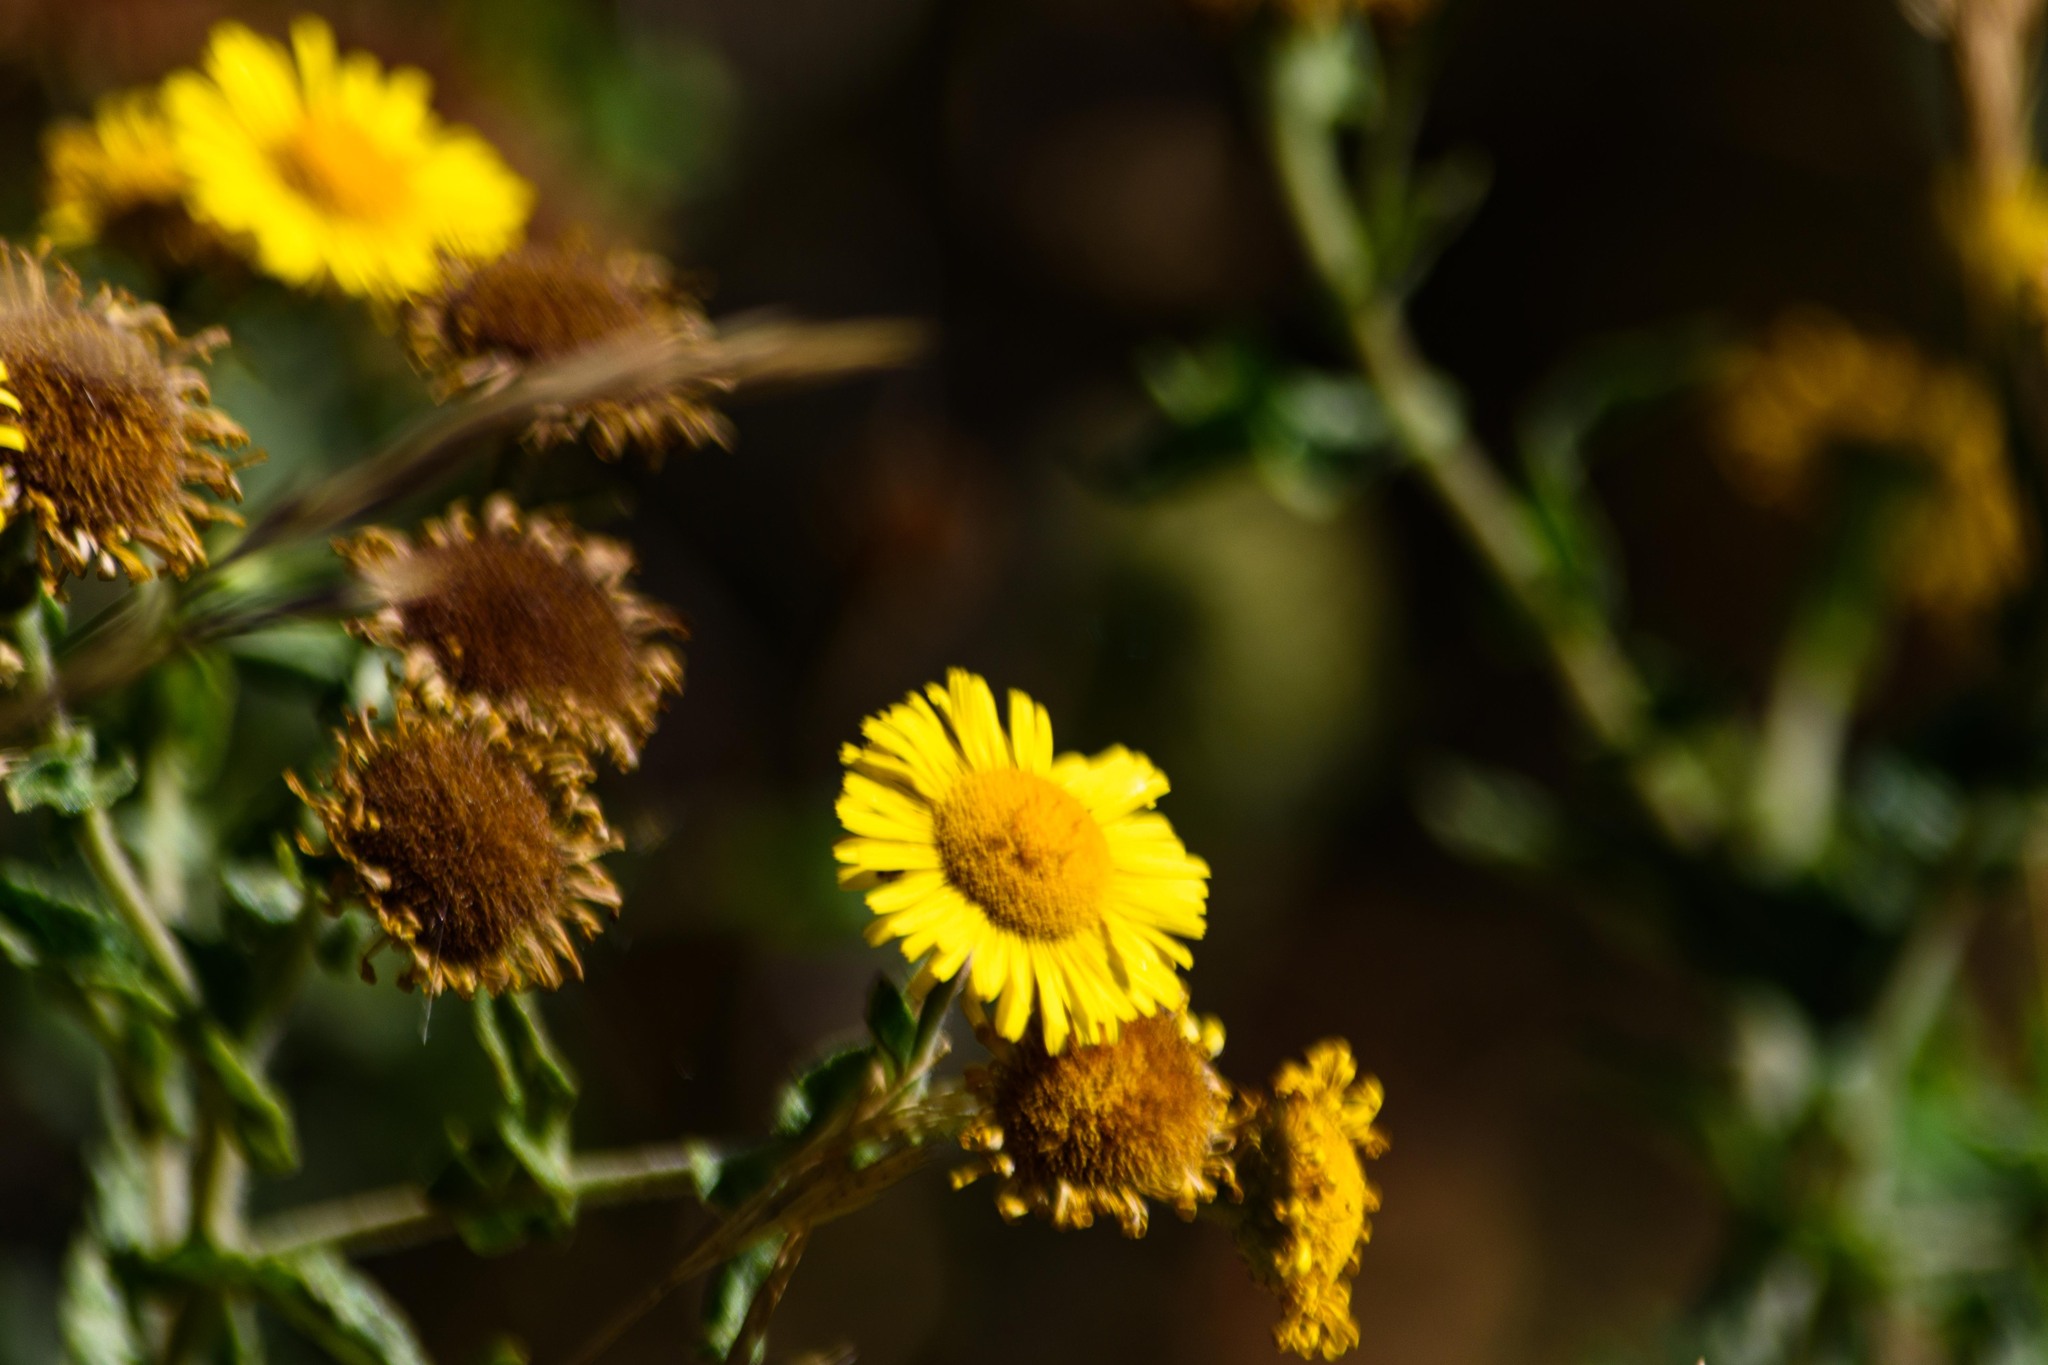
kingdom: Plantae
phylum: Tracheophyta
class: Magnoliopsida
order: Asterales
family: Asteraceae
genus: Pulicaria
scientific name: Pulicaria dysenterica
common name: Common fleabane
